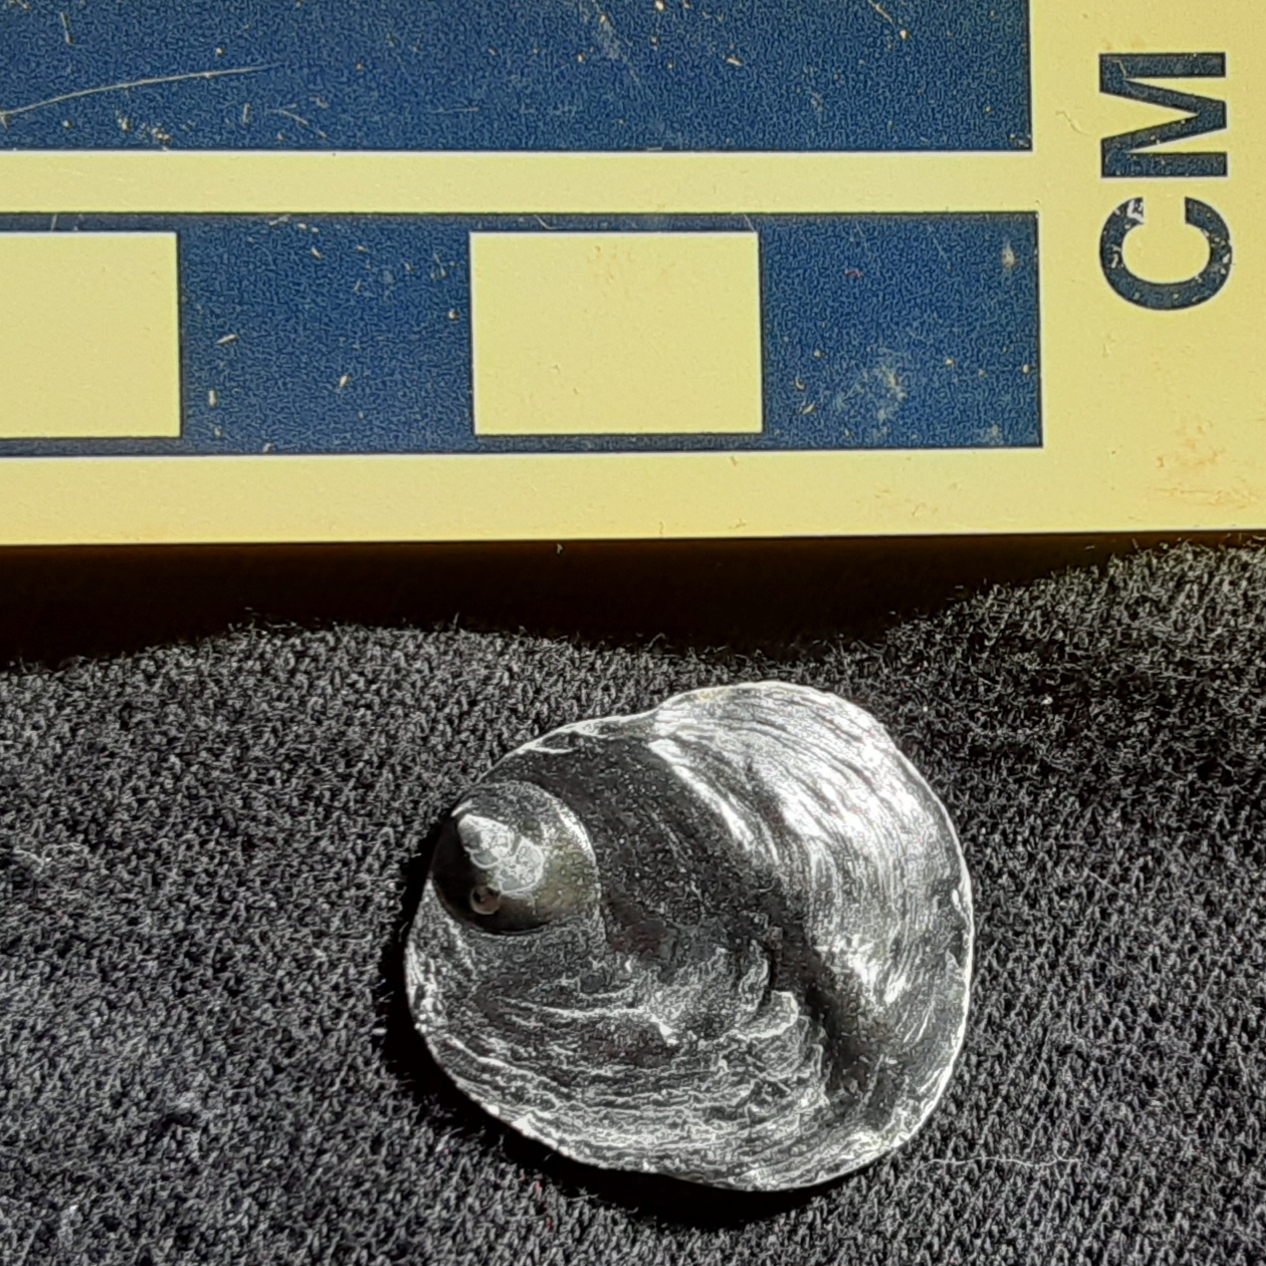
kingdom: Animalia
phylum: Mollusca
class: Bivalvia
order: Pectinida
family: Anomiidae
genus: Anomia
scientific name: Anomia simplex
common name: Common jingle shell
